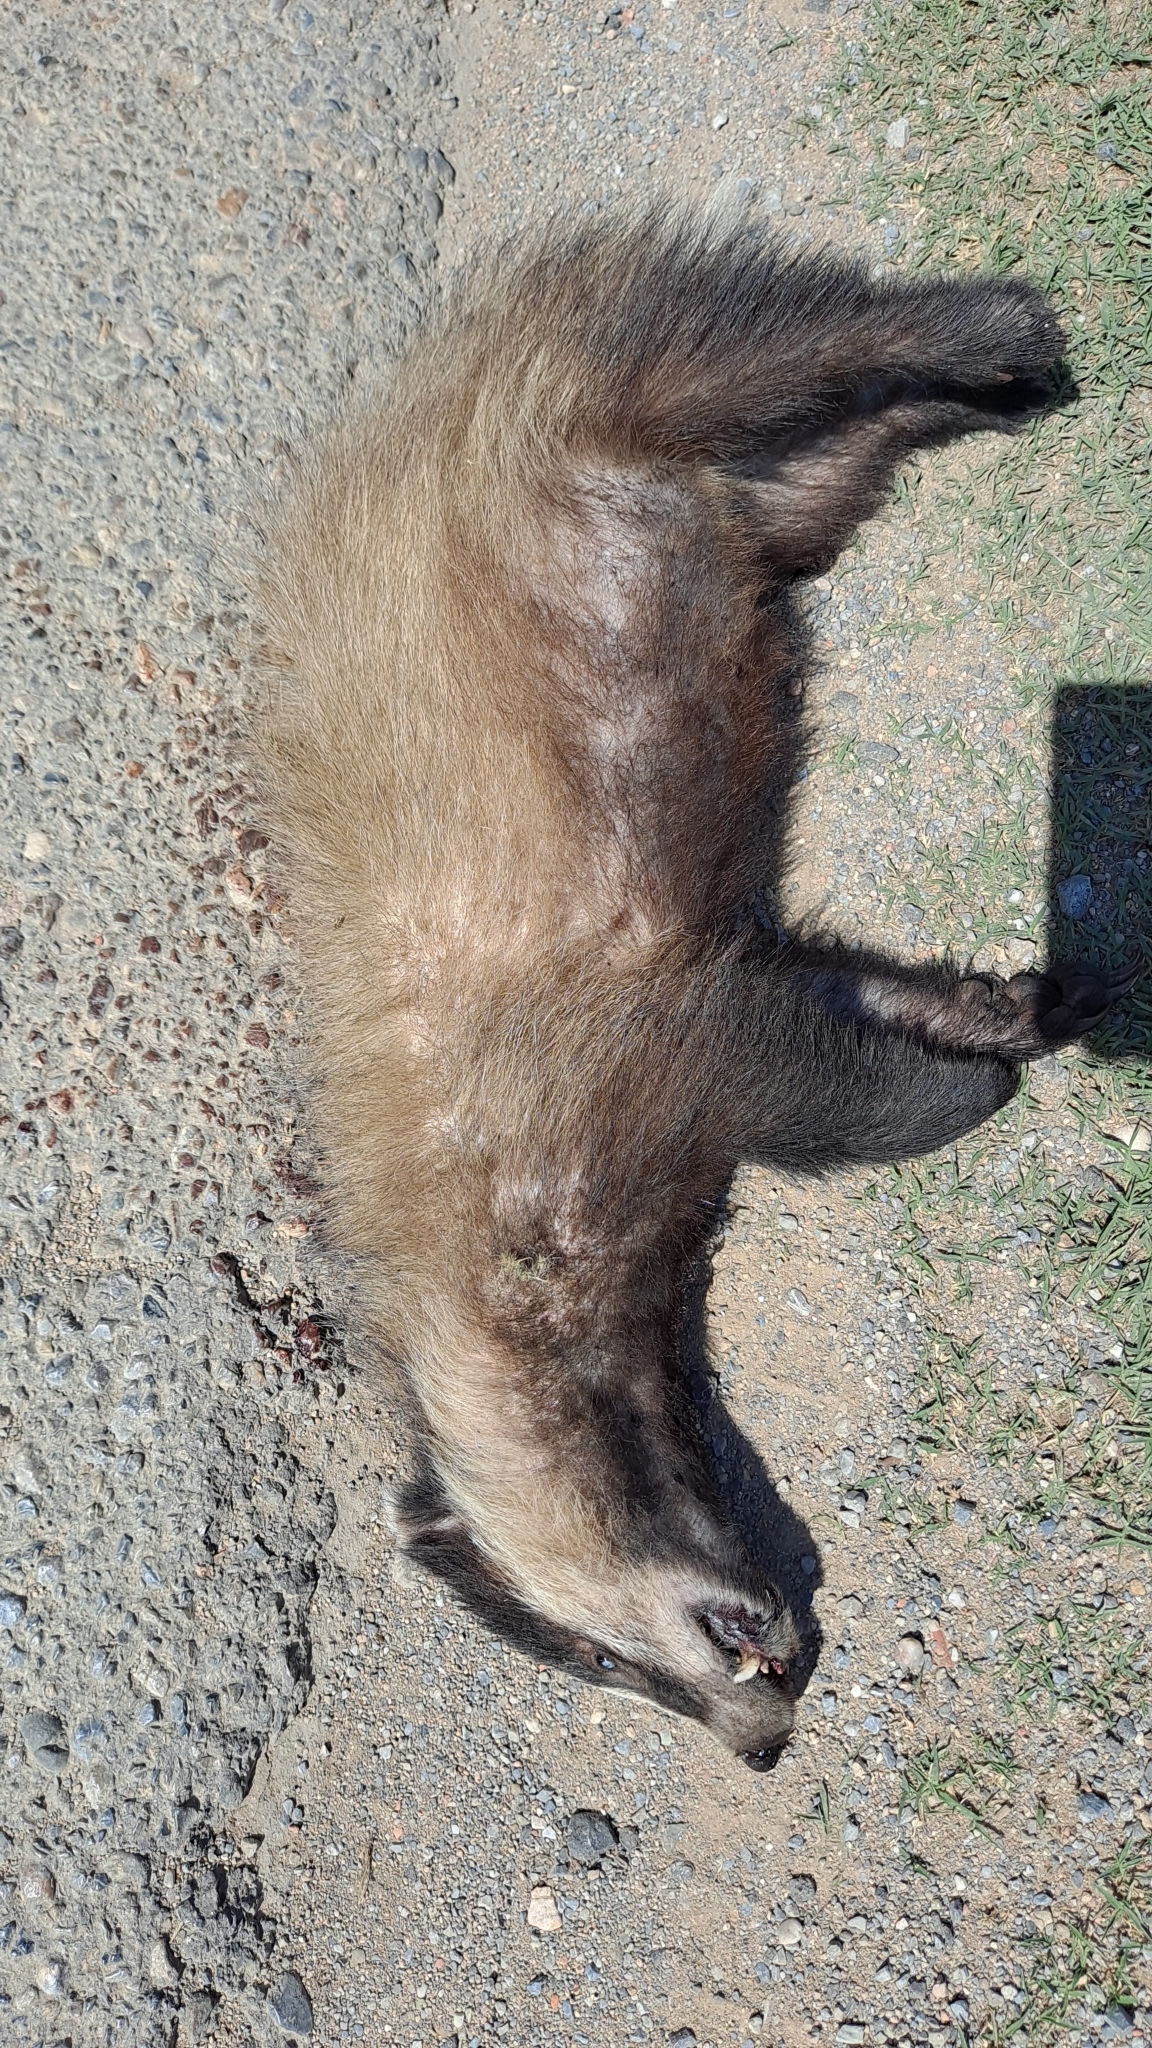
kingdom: Animalia
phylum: Chordata
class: Mammalia
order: Carnivora
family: Mustelidae
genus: Meles
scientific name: Meles meles
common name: Eurasian badger
